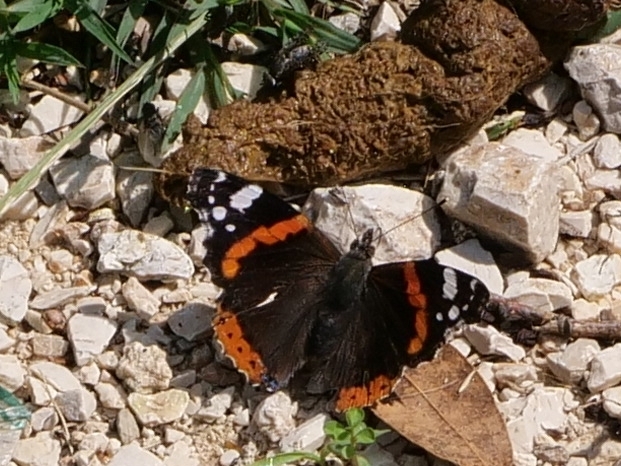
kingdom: Animalia
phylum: Arthropoda
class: Insecta
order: Lepidoptera
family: Nymphalidae
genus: Vanessa
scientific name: Vanessa atalanta
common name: Red admiral
